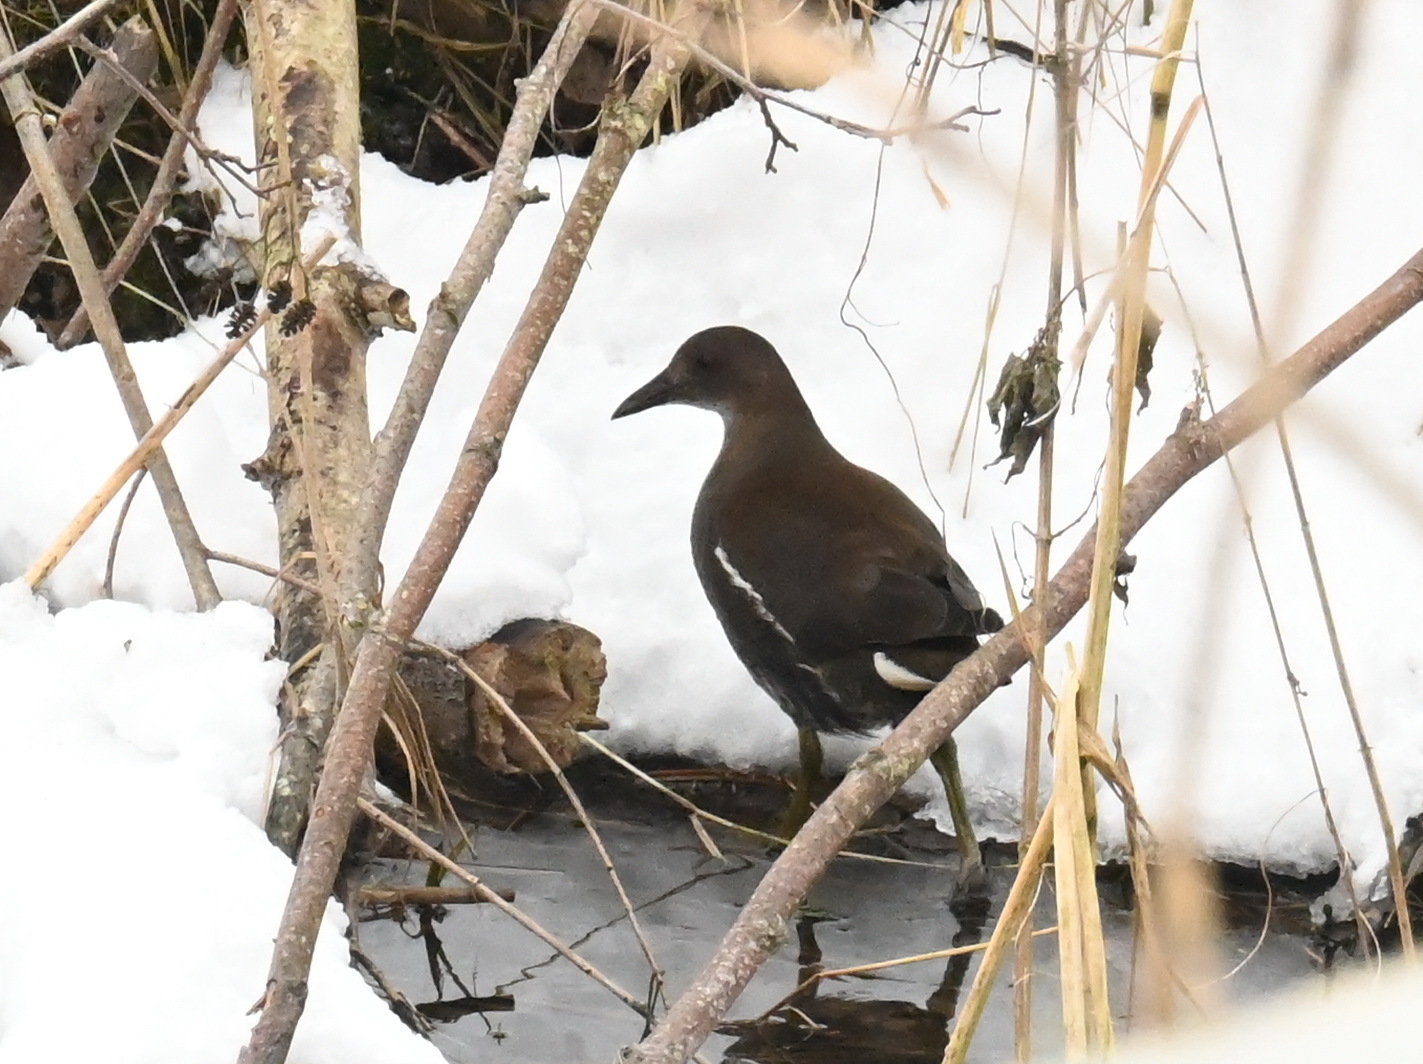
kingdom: Animalia
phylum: Chordata
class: Aves
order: Gruiformes
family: Rallidae
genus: Gallinula
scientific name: Gallinula chloropus
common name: Common moorhen
